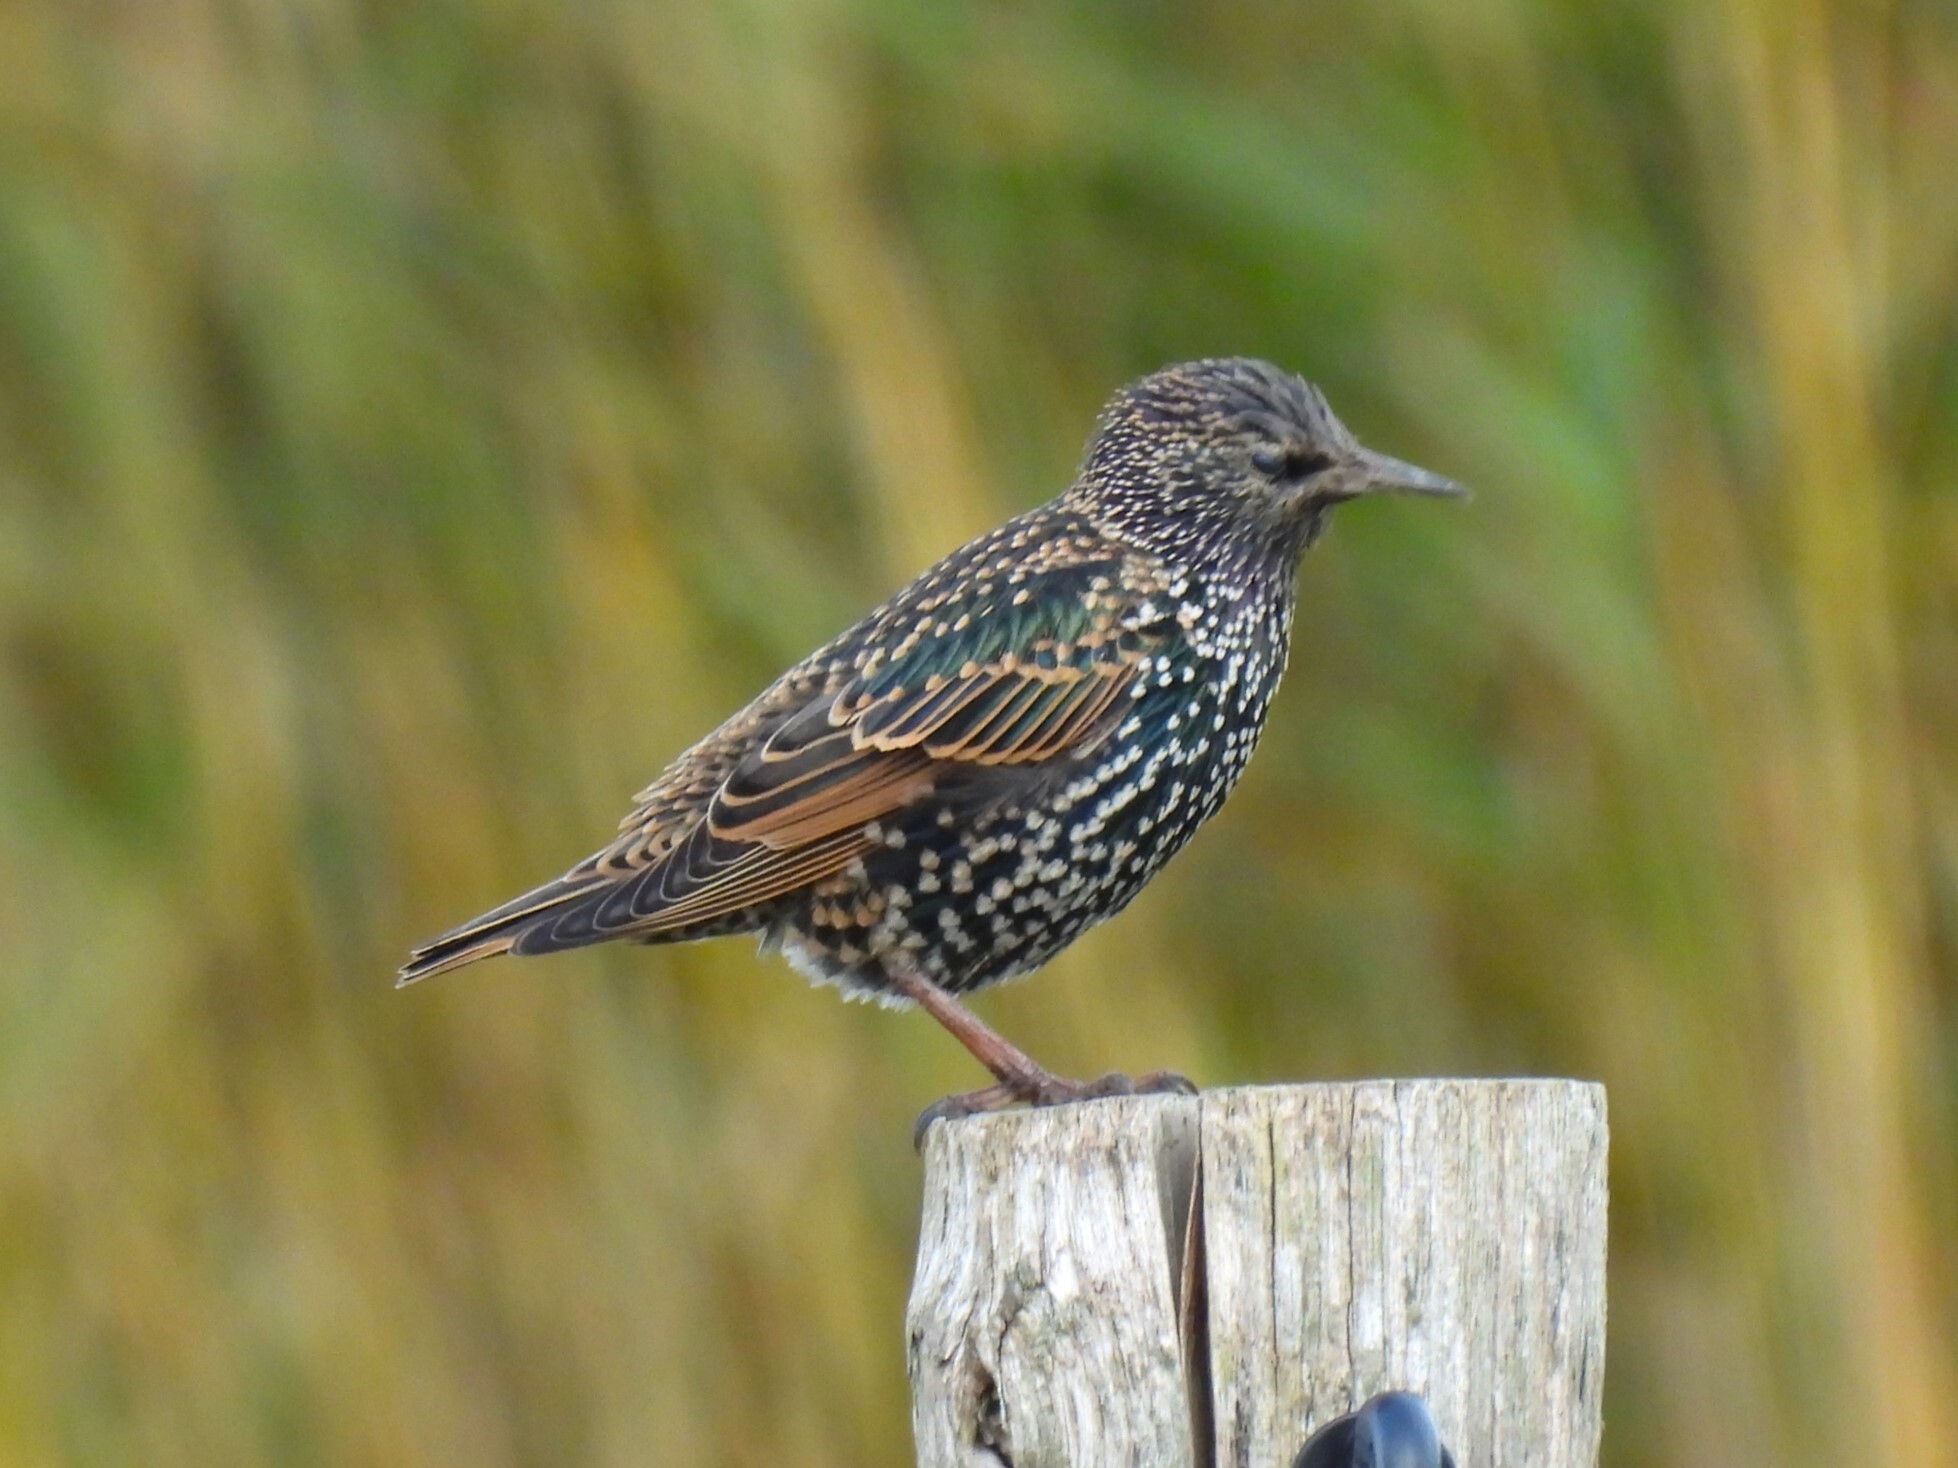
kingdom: Animalia
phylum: Chordata
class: Aves
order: Passeriformes
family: Sturnidae
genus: Sturnus
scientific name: Sturnus vulgaris
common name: Common starling
